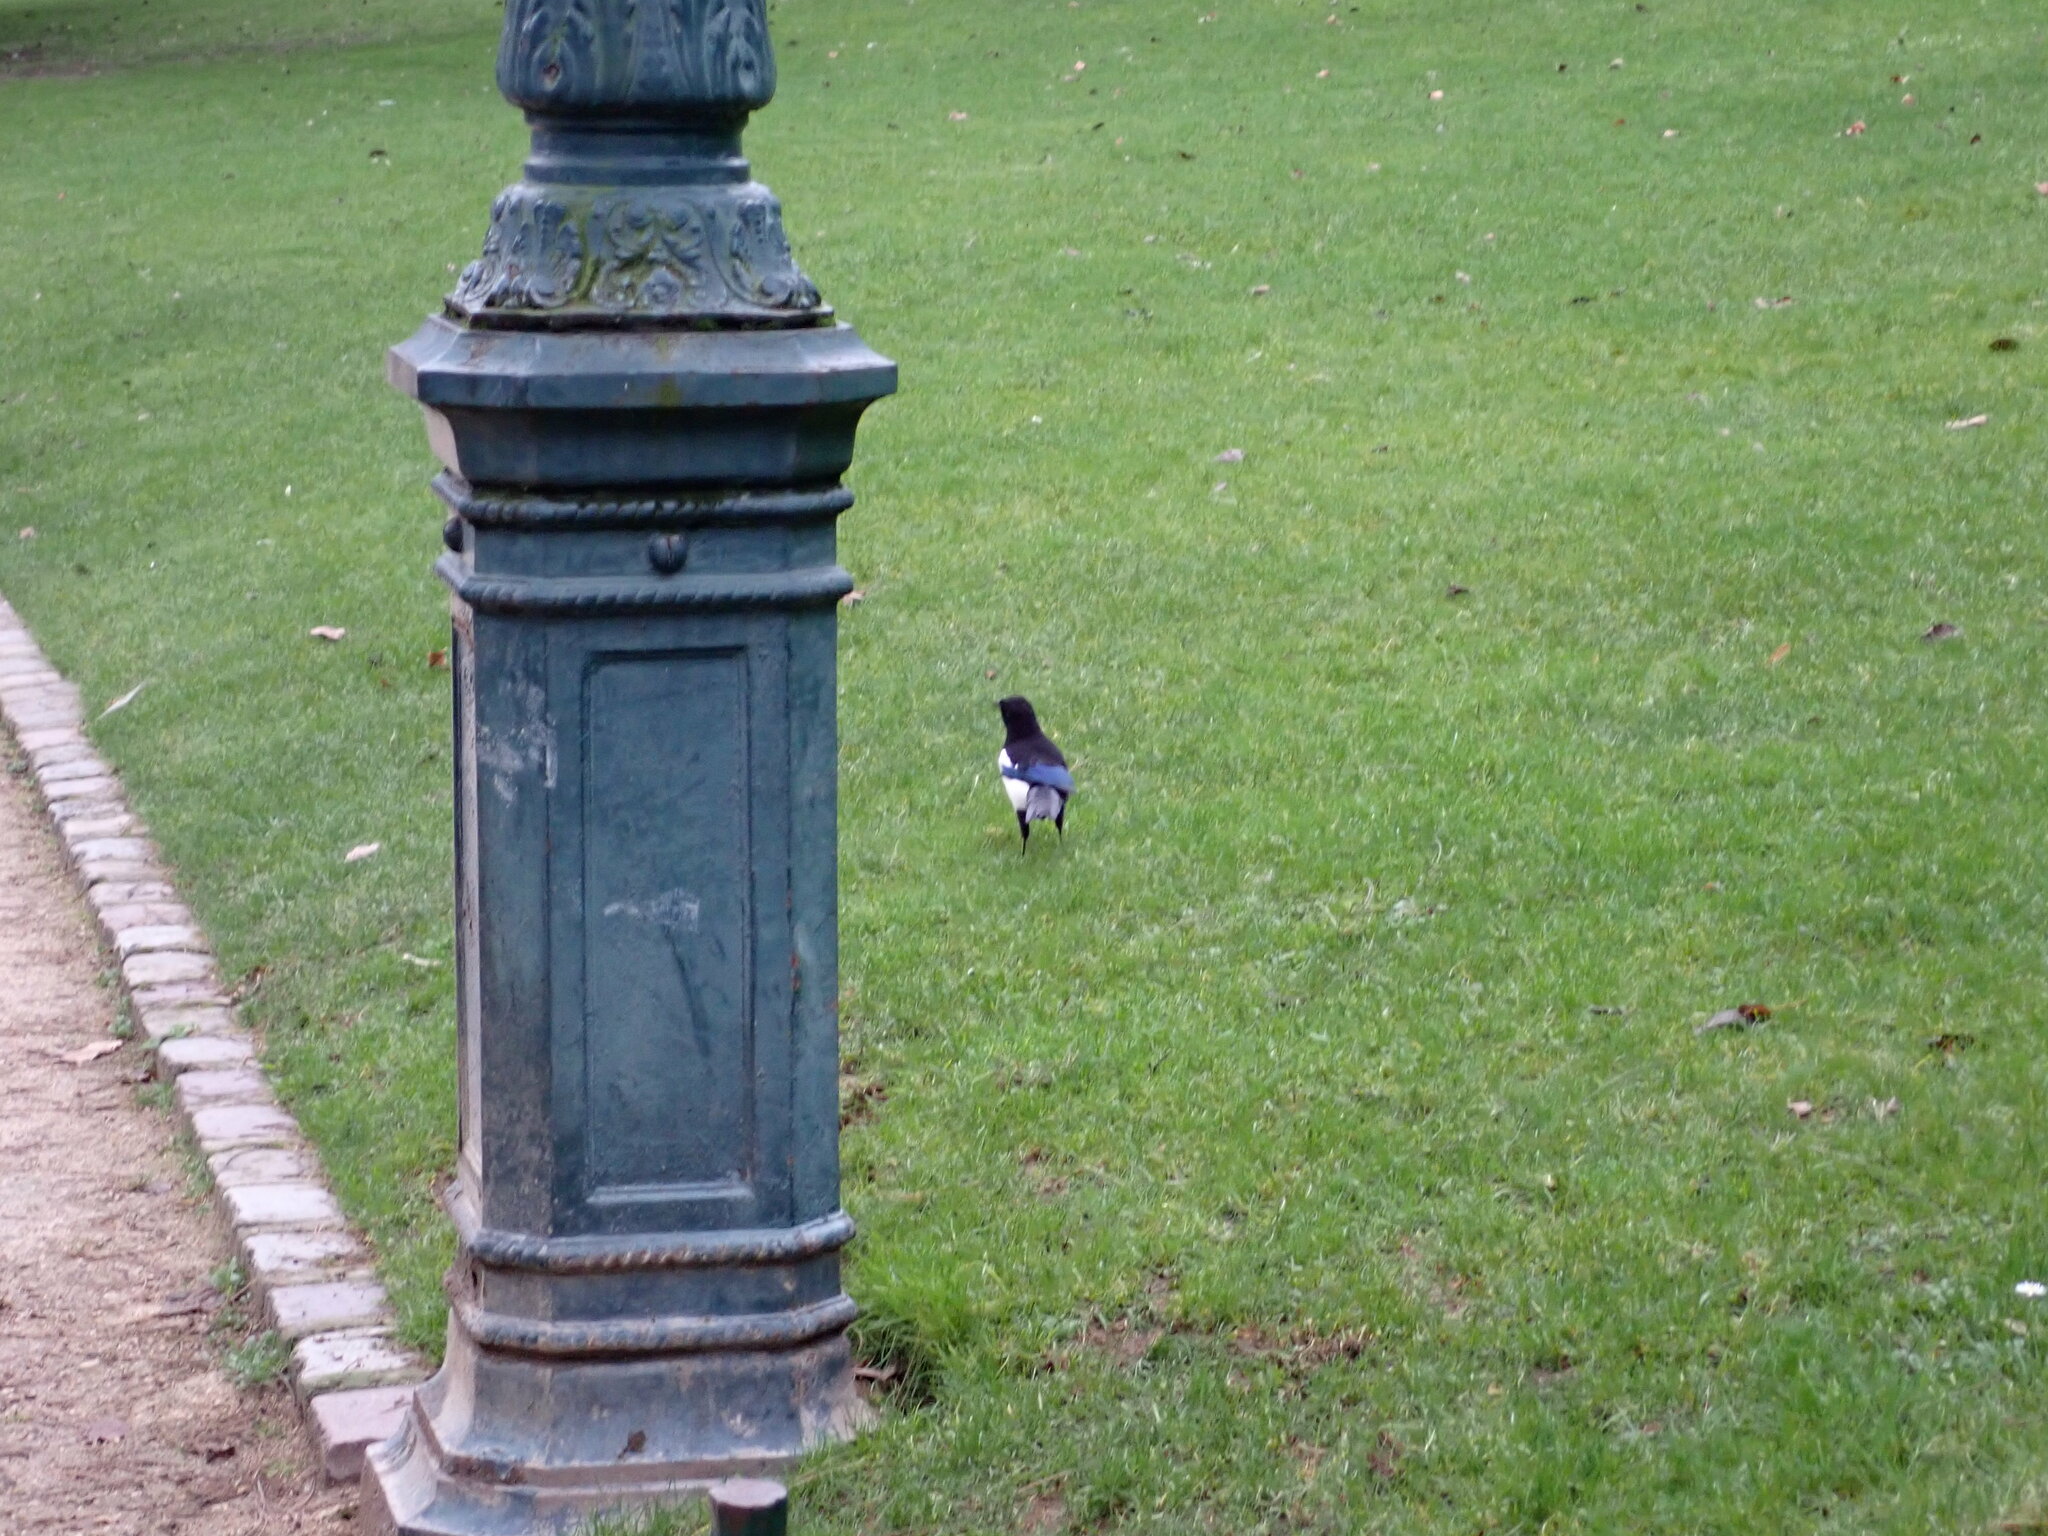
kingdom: Animalia
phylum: Chordata
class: Aves
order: Passeriformes
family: Corvidae
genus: Pica
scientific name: Pica pica
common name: Eurasian magpie
